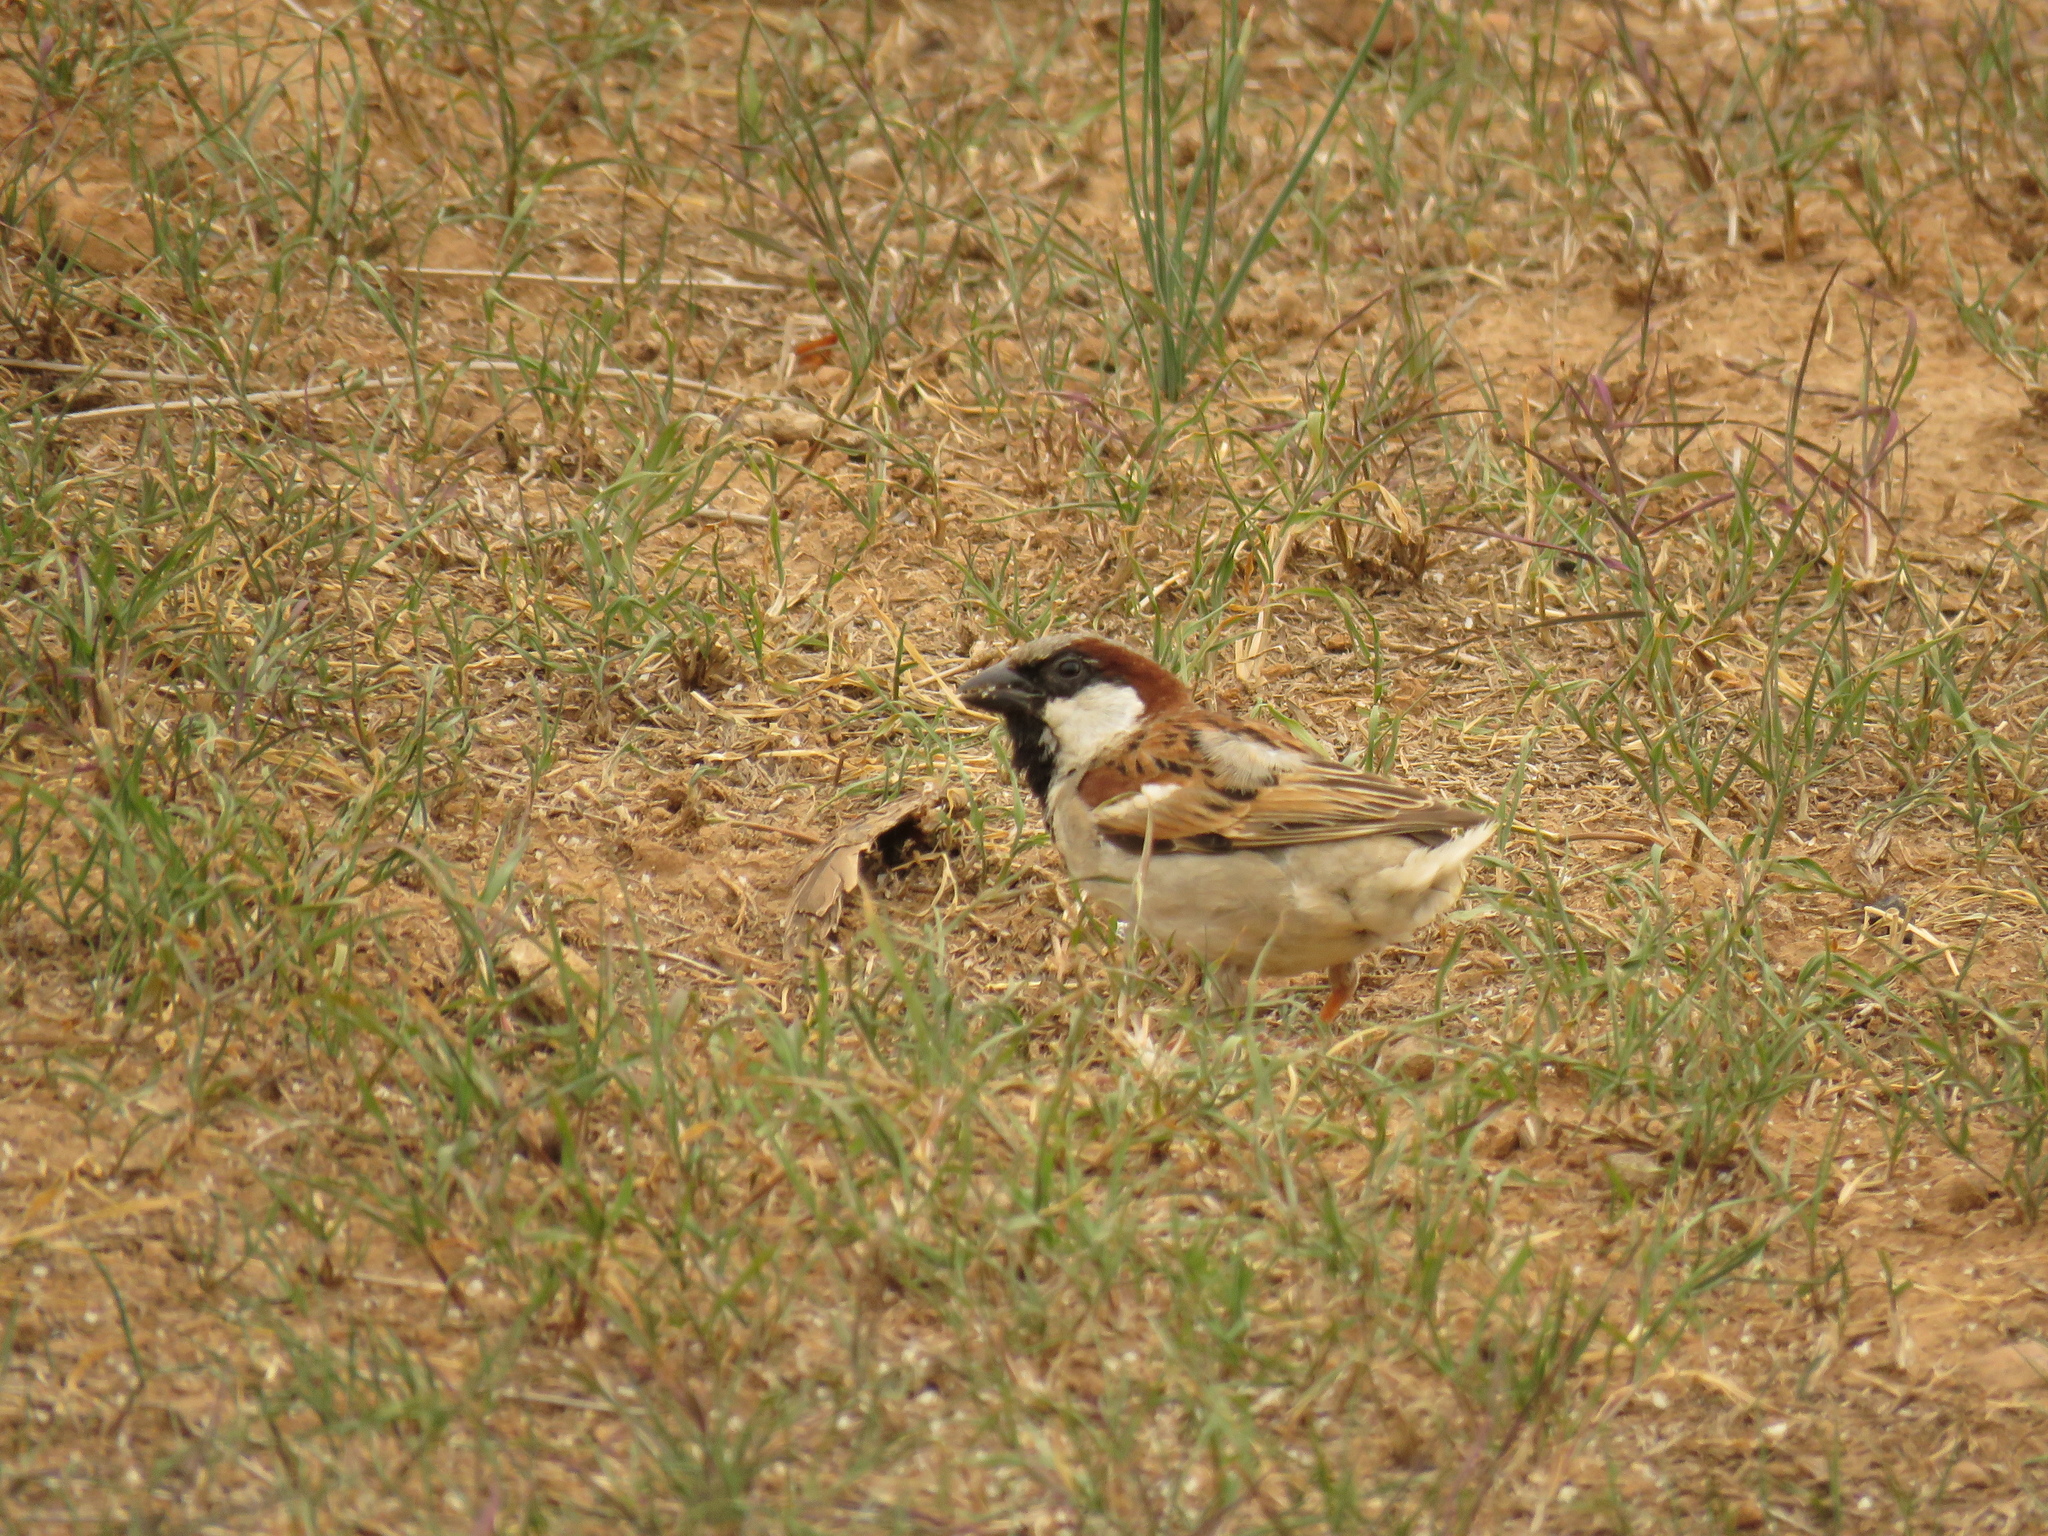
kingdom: Animalia
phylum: Chordata
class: Aves
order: Passeriformes
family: Passeridae
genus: Passer
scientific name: Passer domesticus
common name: House sparrow
